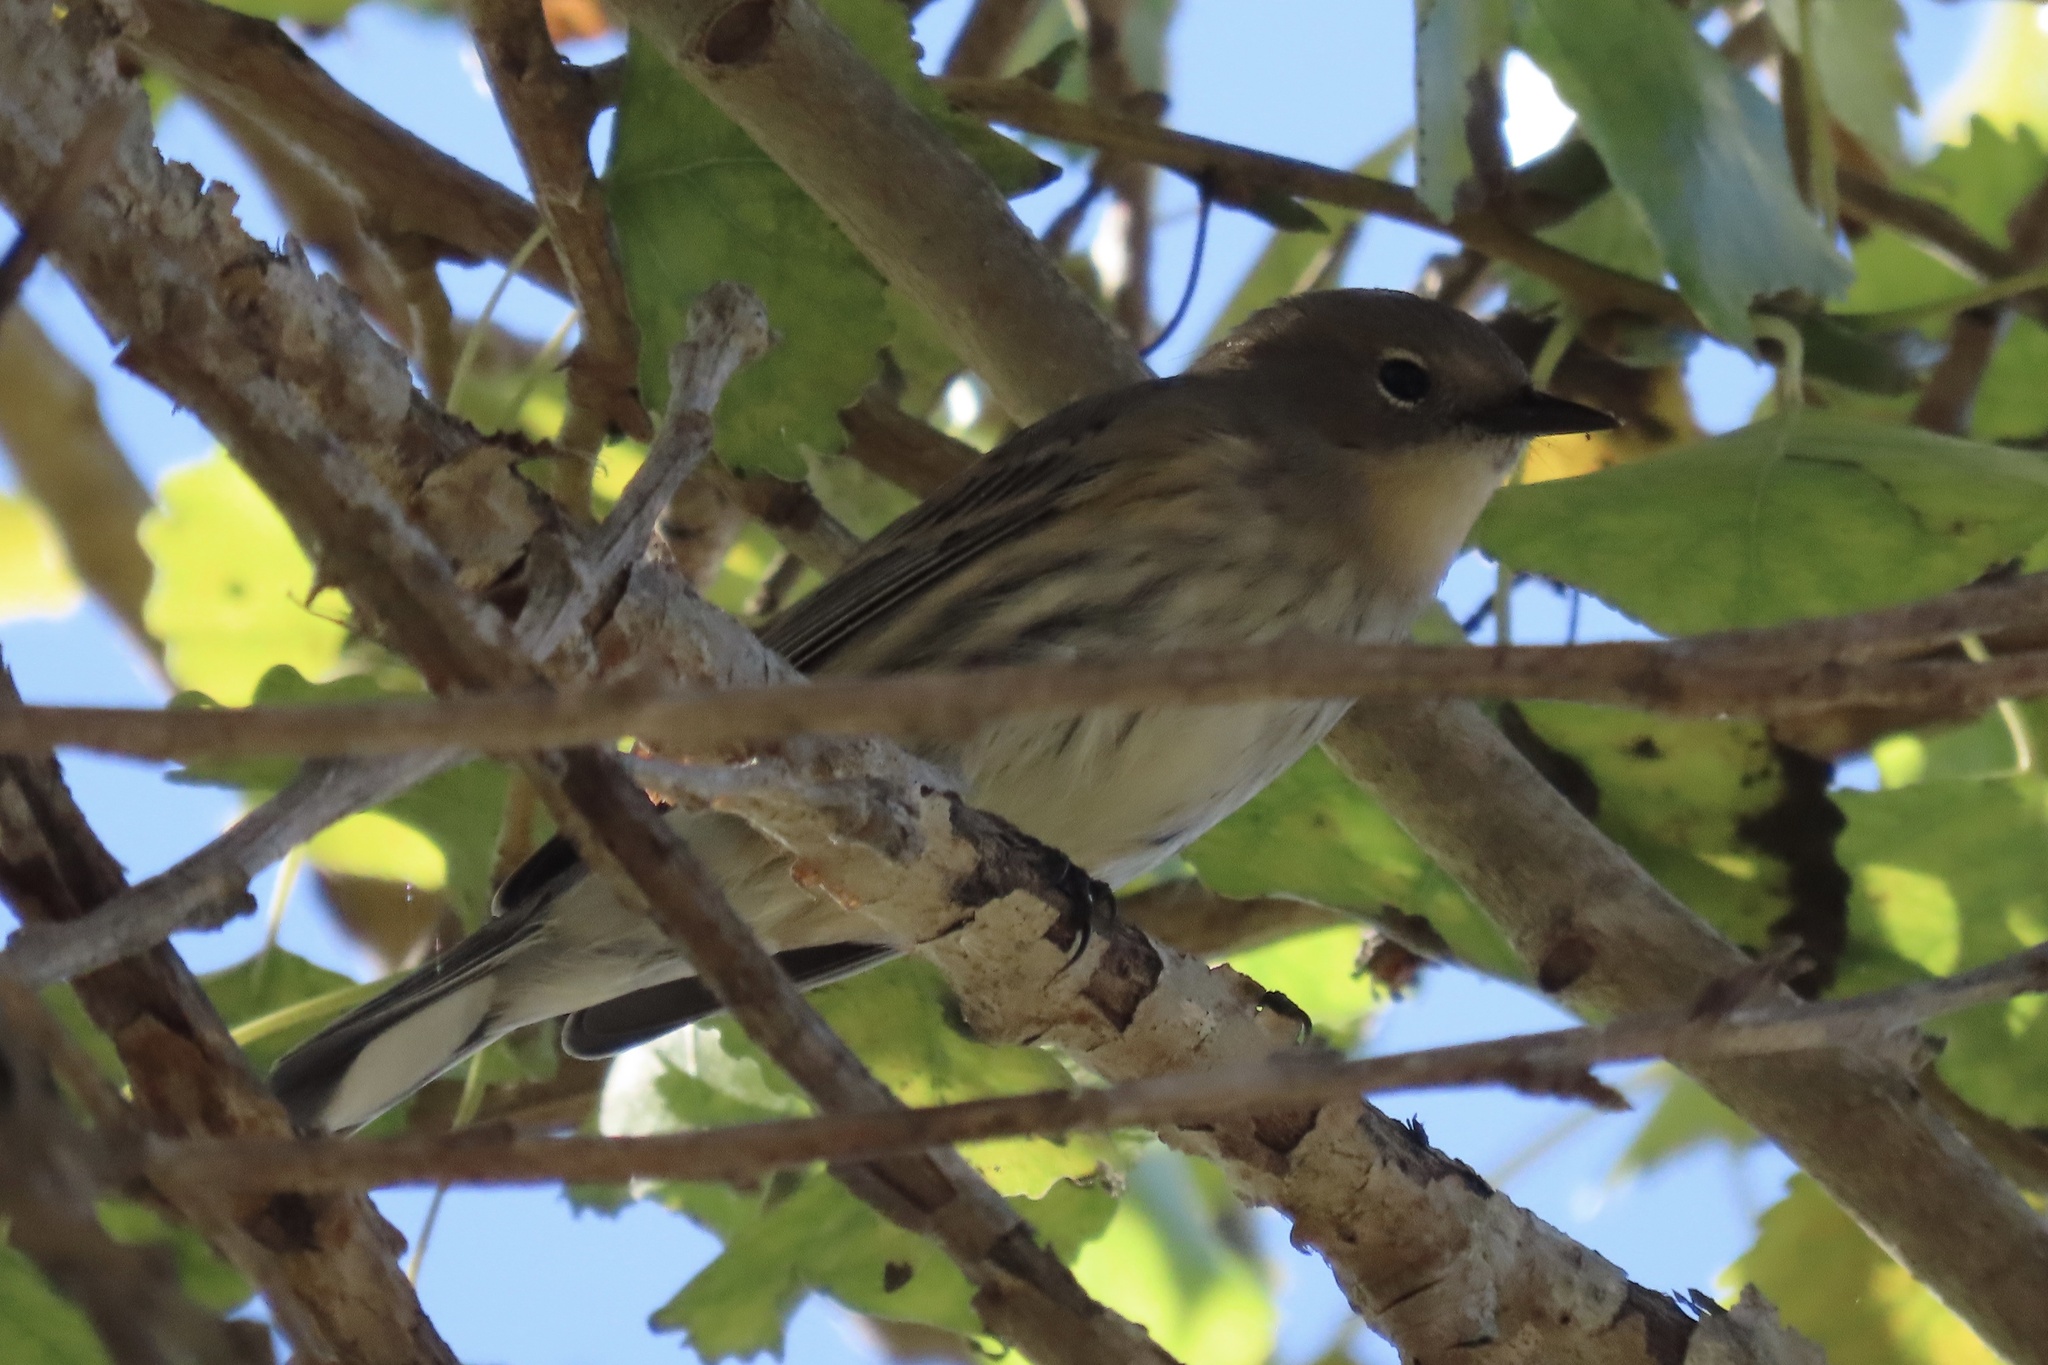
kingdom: Animalia
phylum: Chordata
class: Aves
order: Passeriformes
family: Parulidae
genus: Setophaga
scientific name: Setophaga coronata
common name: Myrtle warbler
